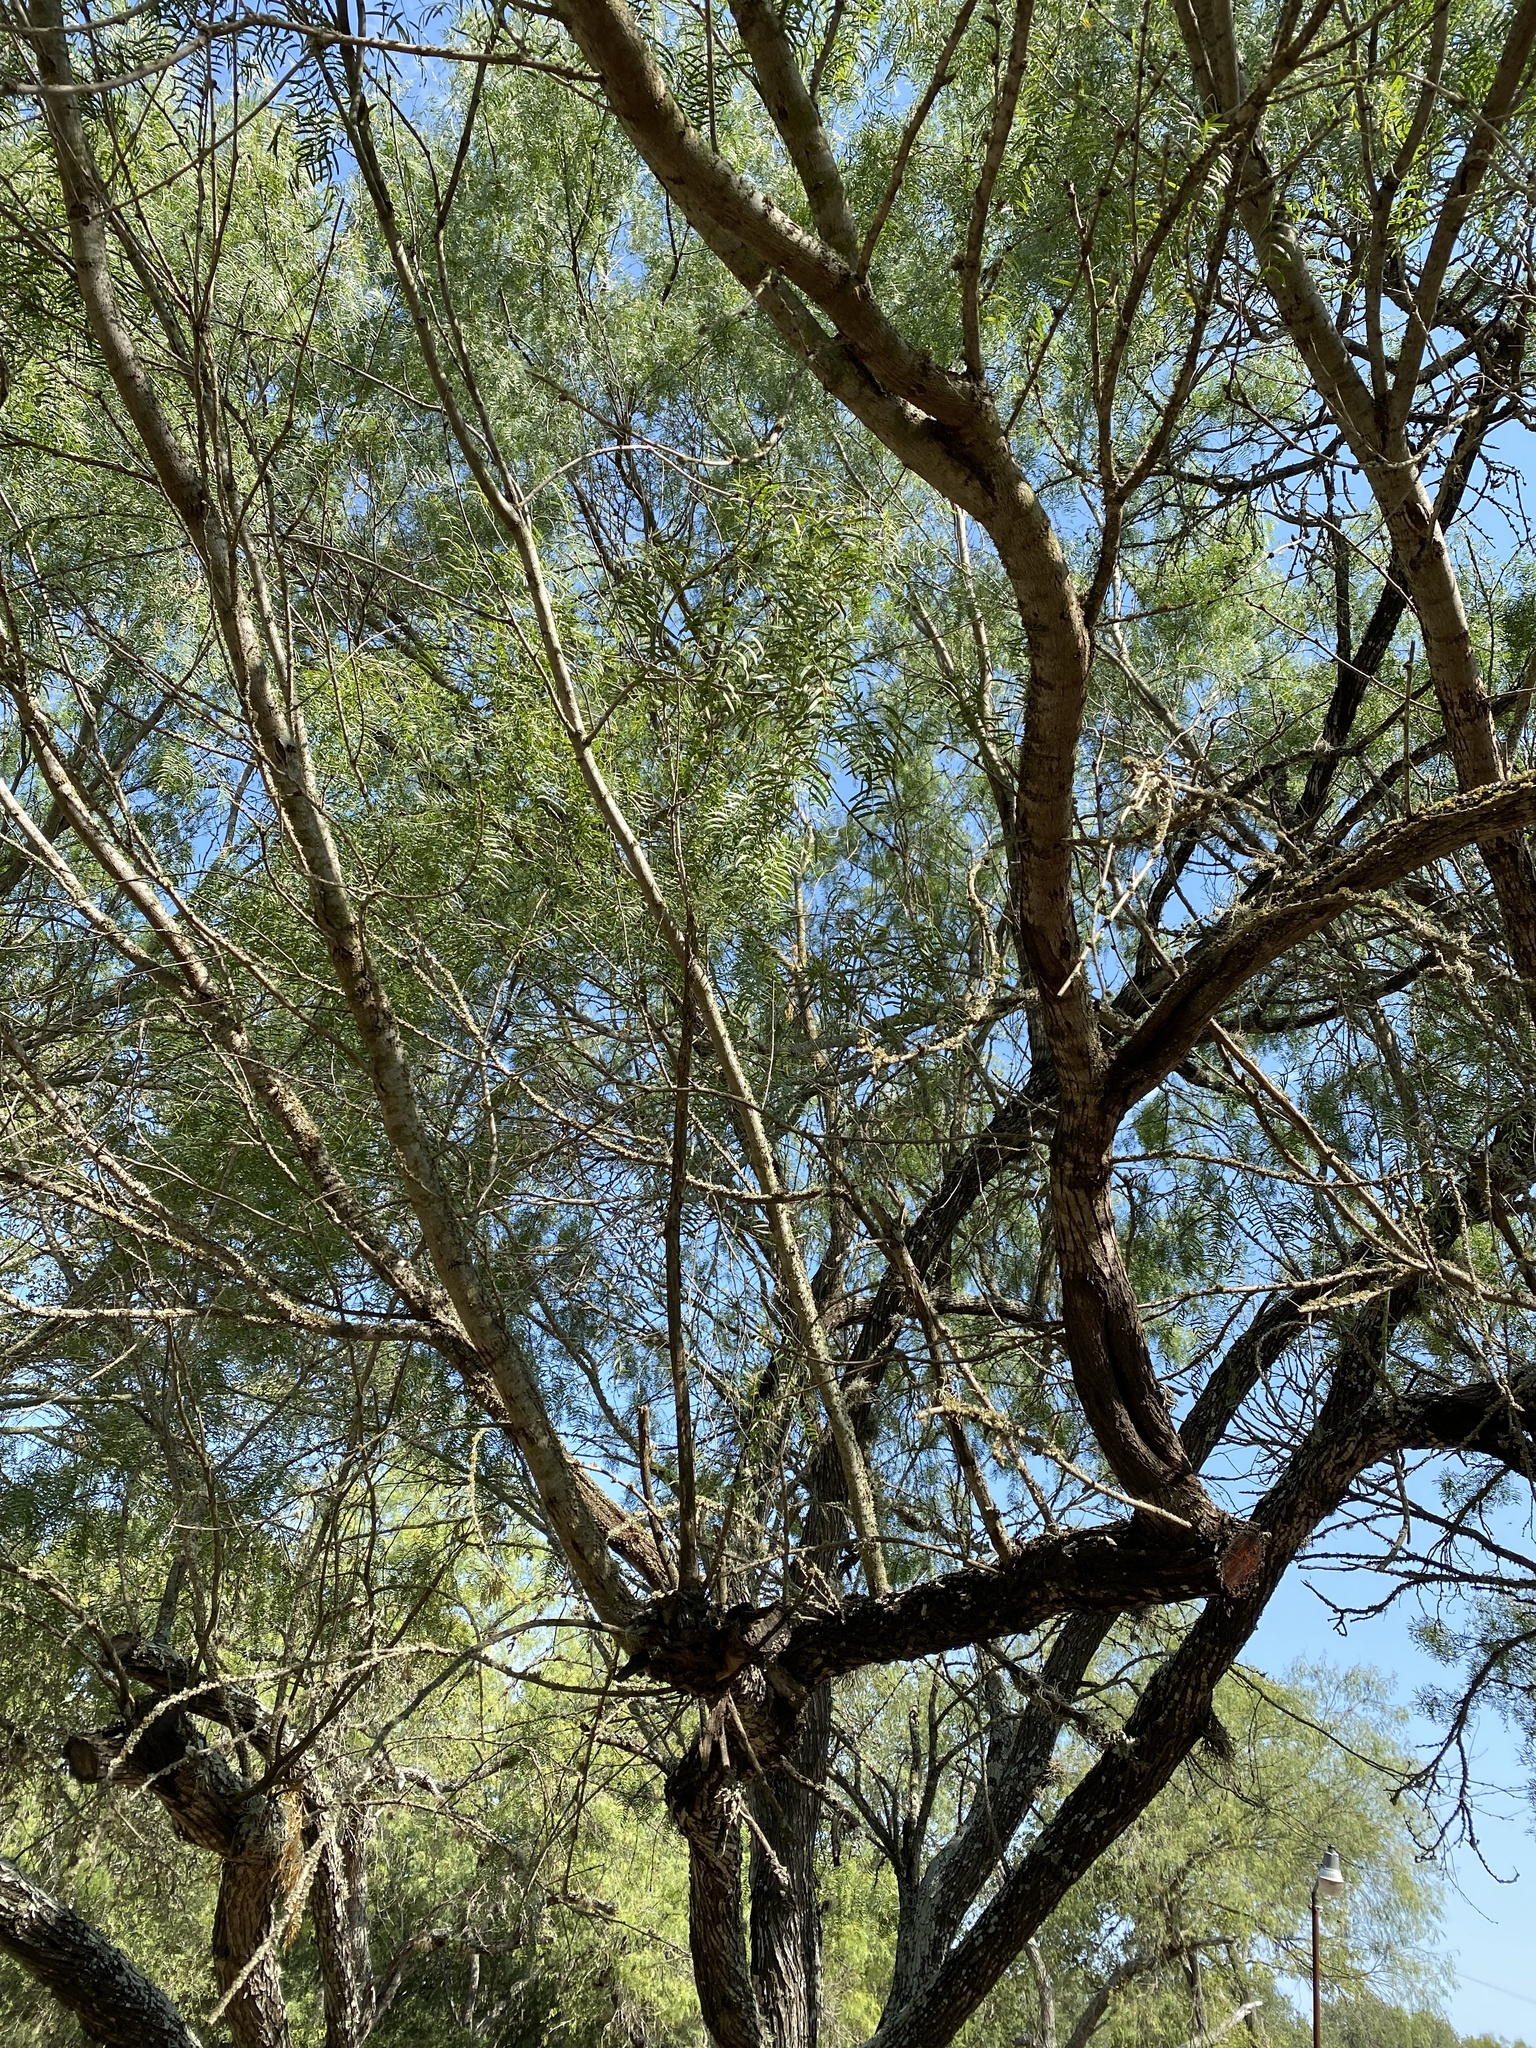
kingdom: Plantae
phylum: Tracheophyta
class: Magnoliopsida
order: Fabales
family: Fabaceae
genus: Prosopis
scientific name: Prosopis glandulosa
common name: Honey mesquite
